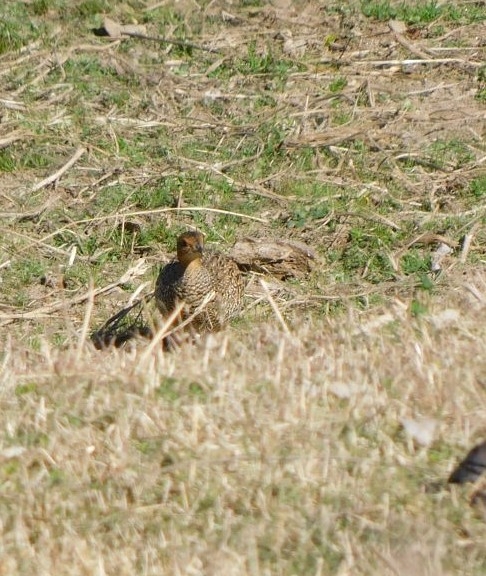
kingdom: Animalia
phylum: Chordata
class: Aves
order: Galliformes
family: Phasianidae
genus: Ortygornis
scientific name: Ortygornis pondicerianus
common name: Grey francolin
